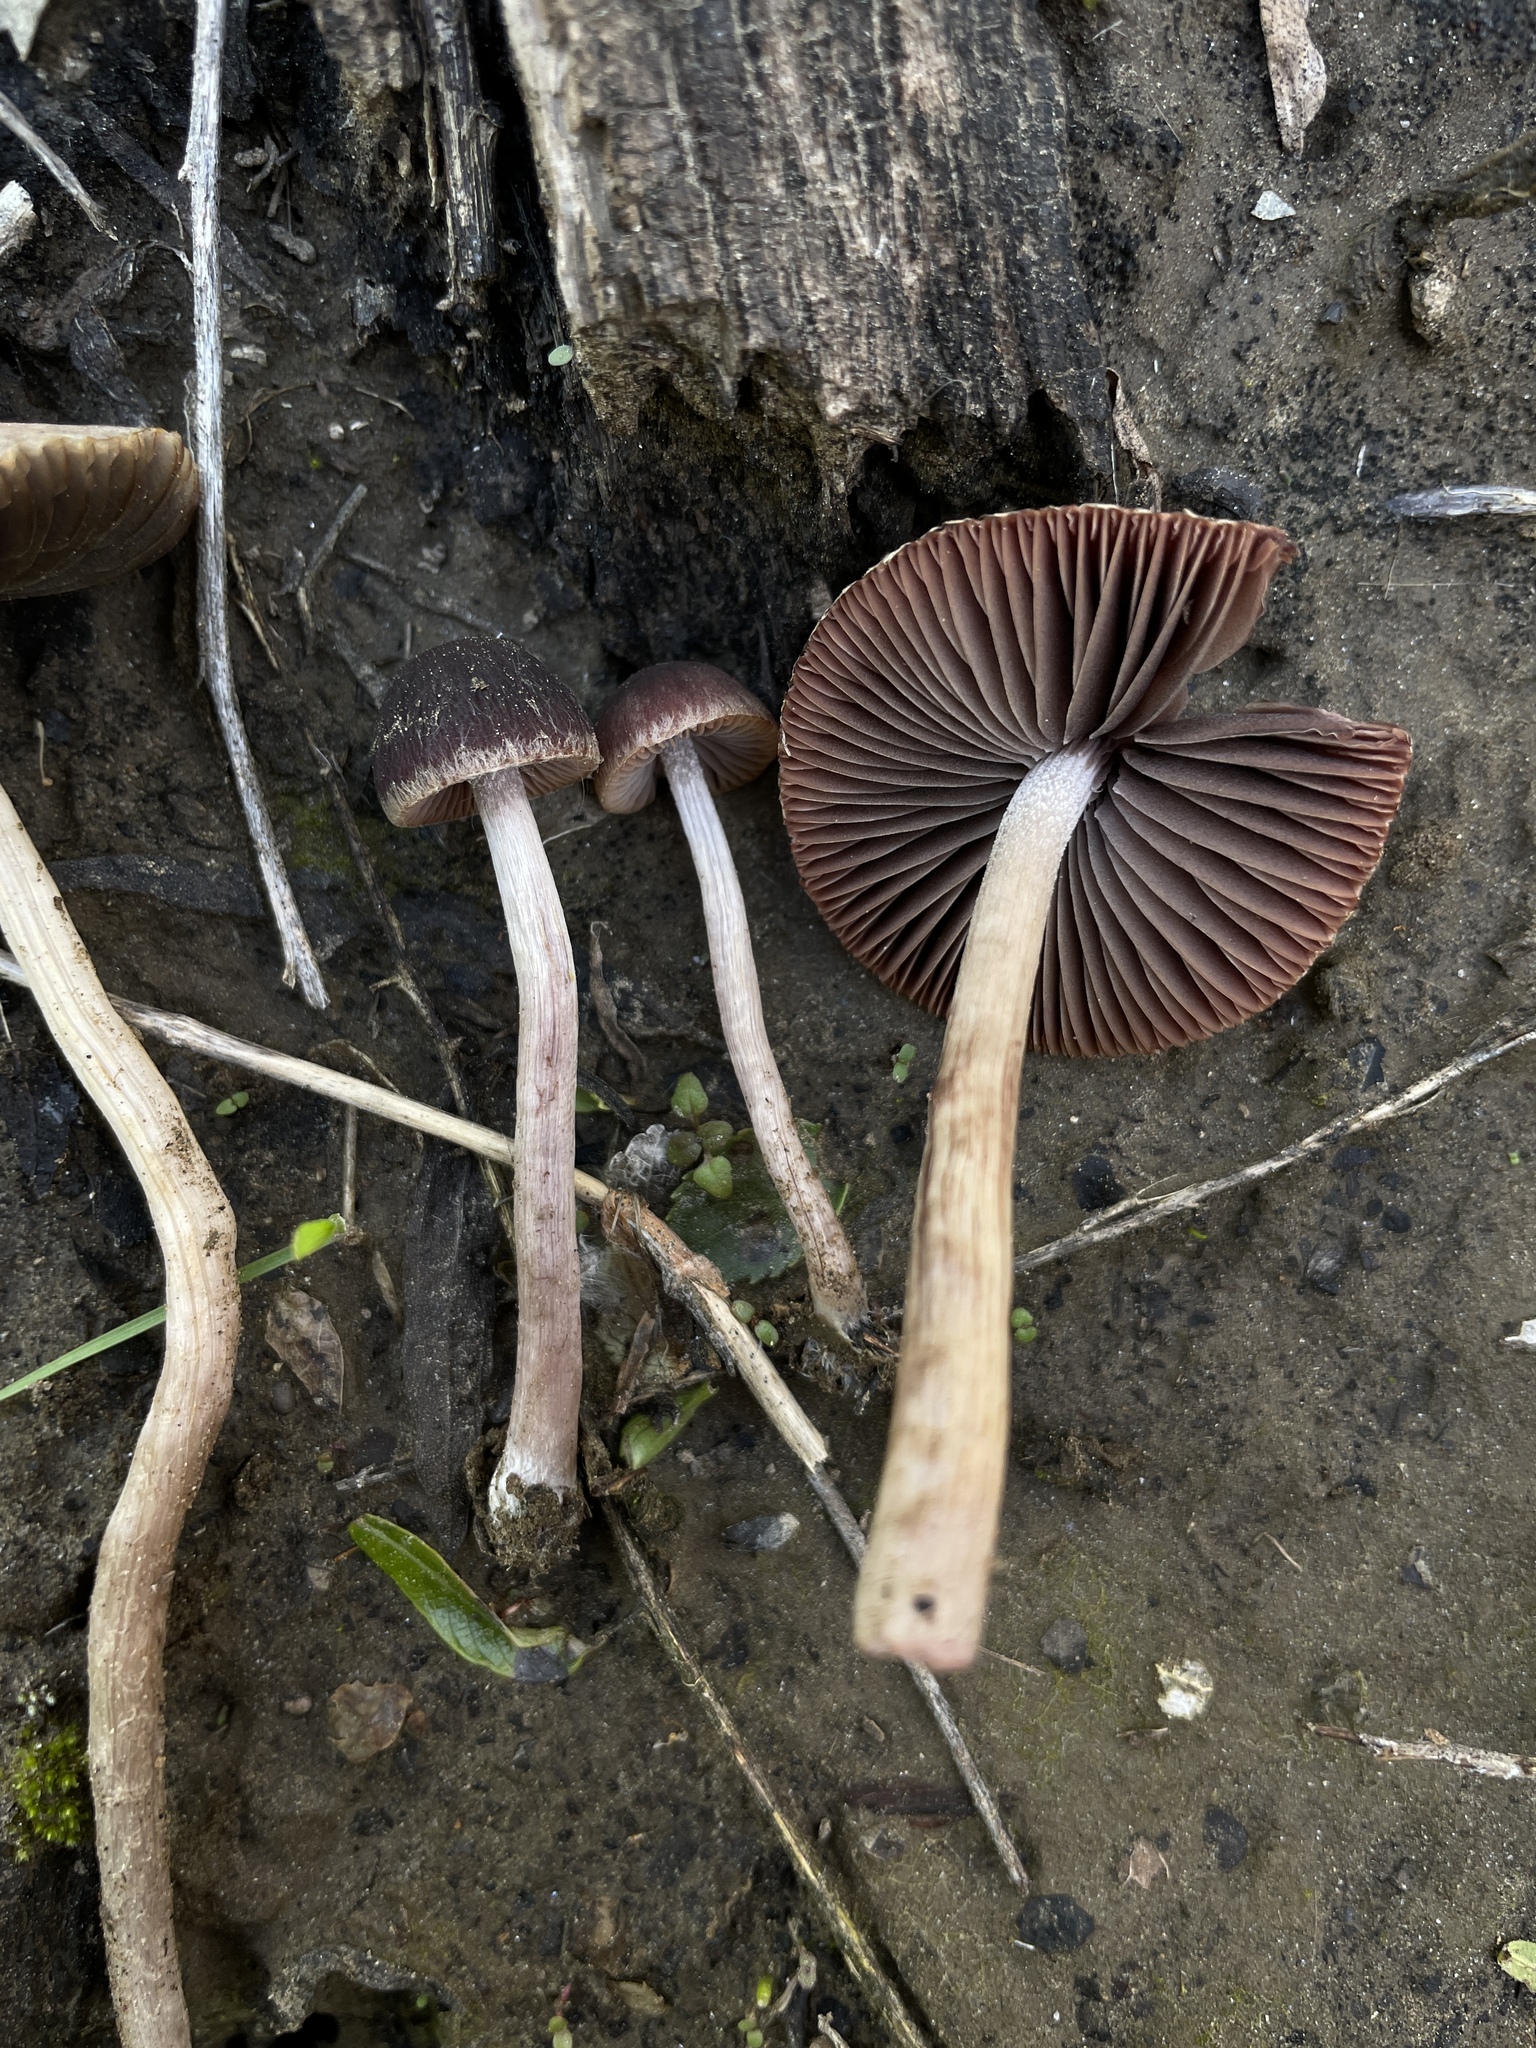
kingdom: Fungi
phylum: Basidiomycota
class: Agaricomycetes
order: Agaricales
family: Psathyrellaceae
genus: Psathyrella
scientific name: Psathyrella bipellis
